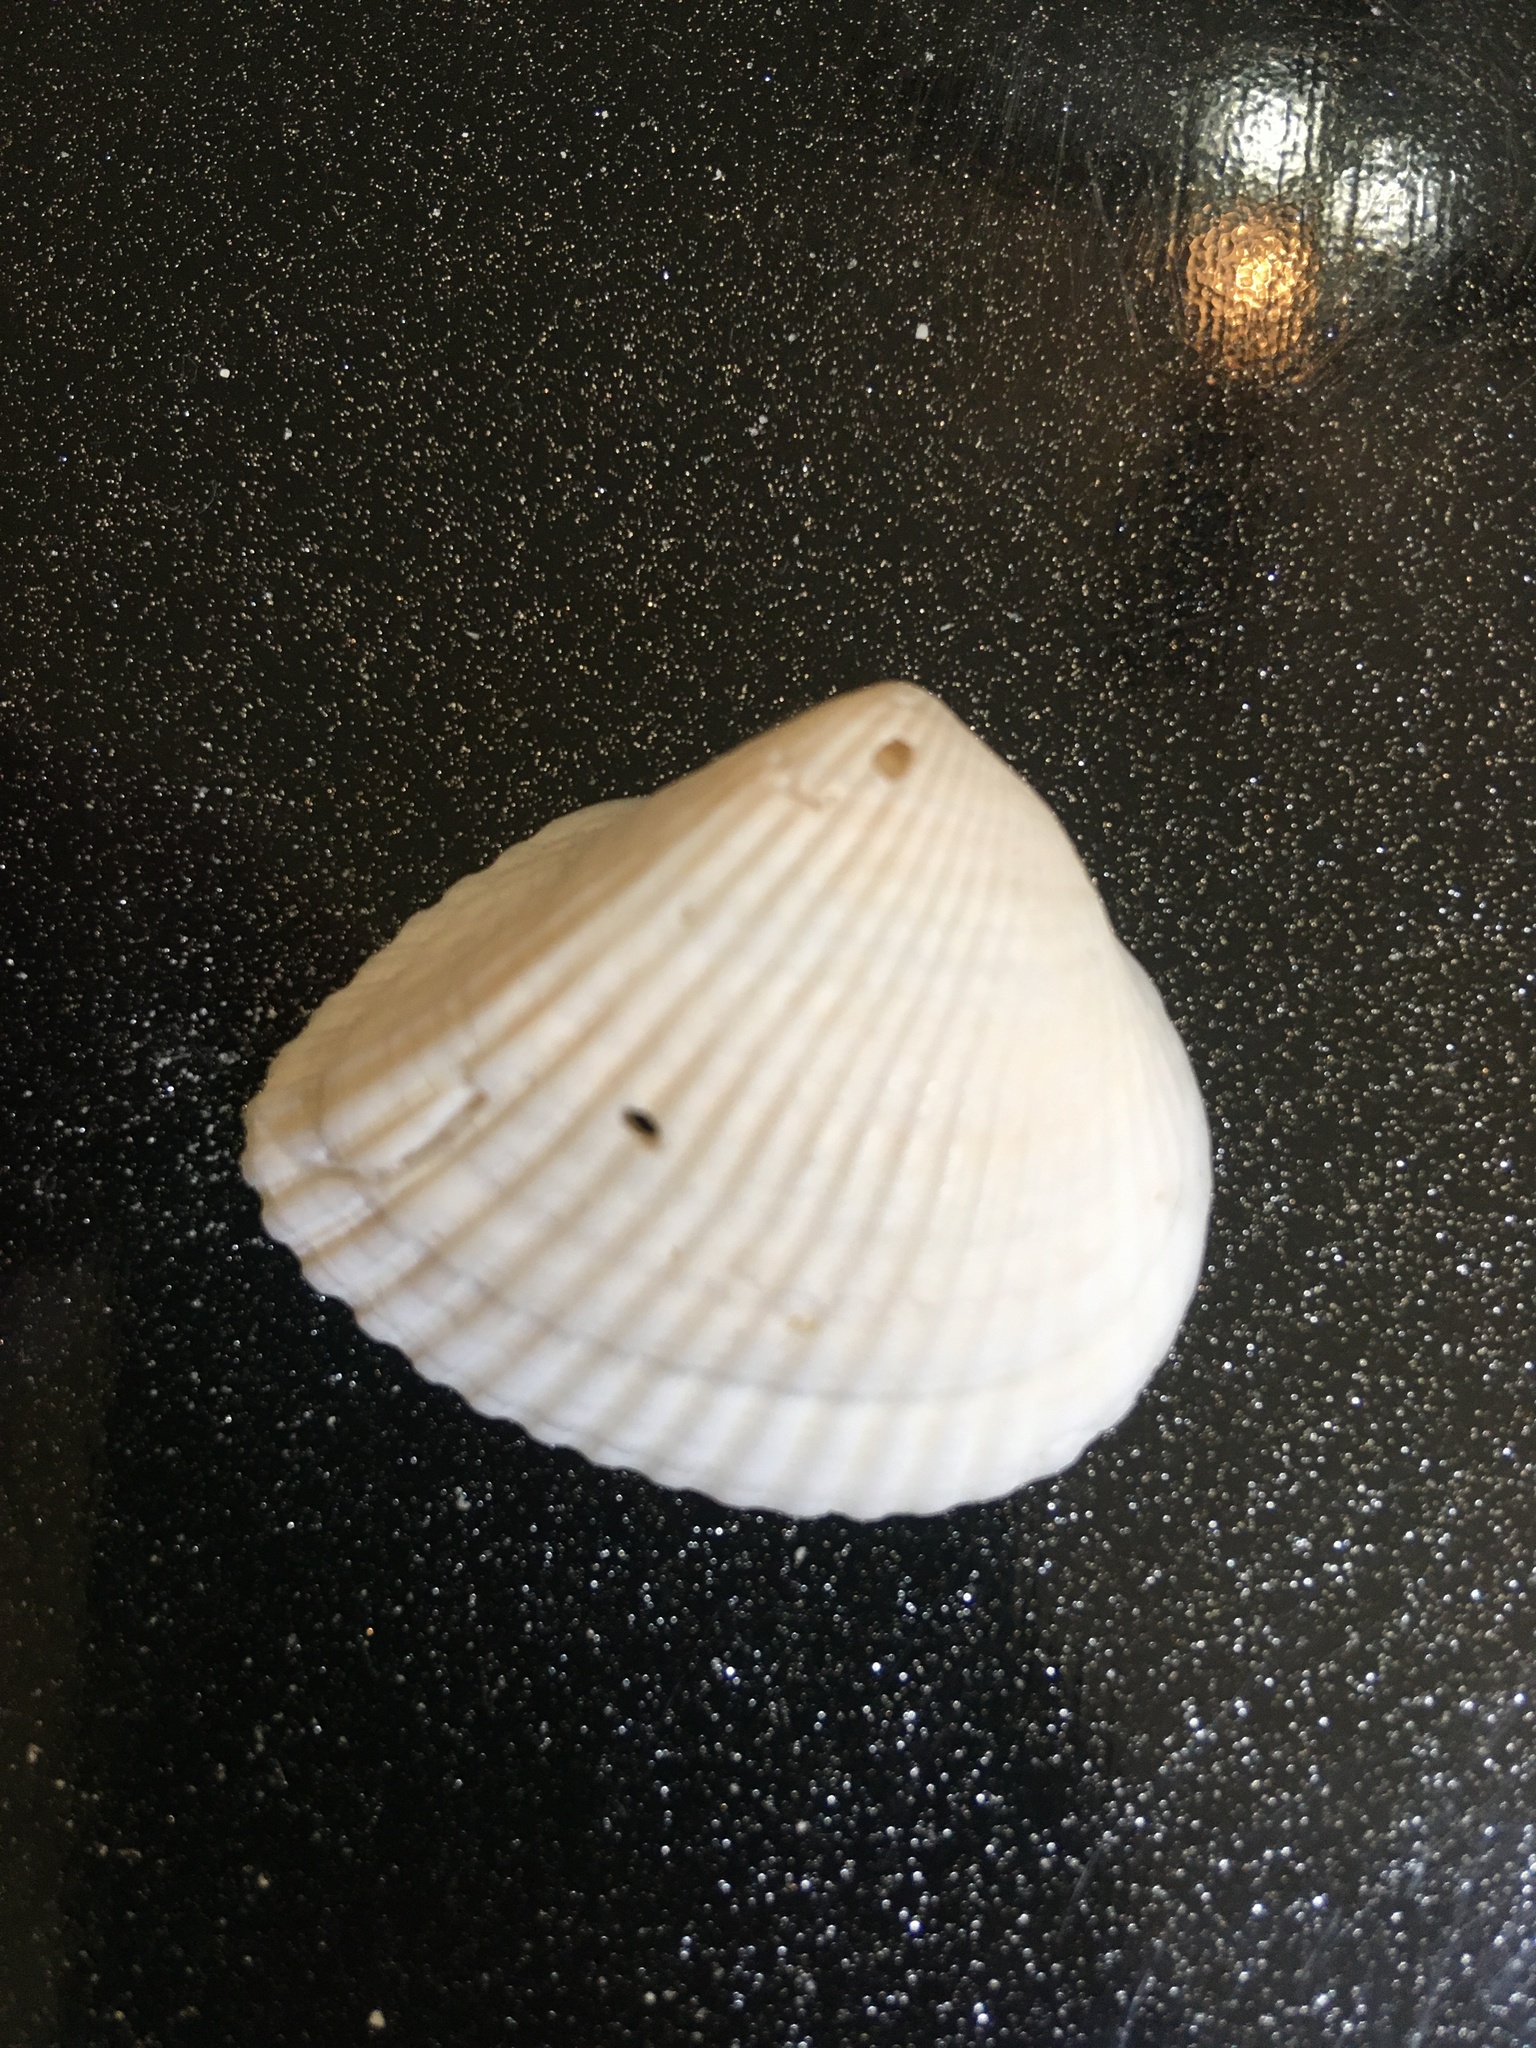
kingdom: Animalia
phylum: Mollusca
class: Bivalvia
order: Arcida
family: Noetiidae
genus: Noetia
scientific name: Noetia ponderosa
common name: Ponderous ark
